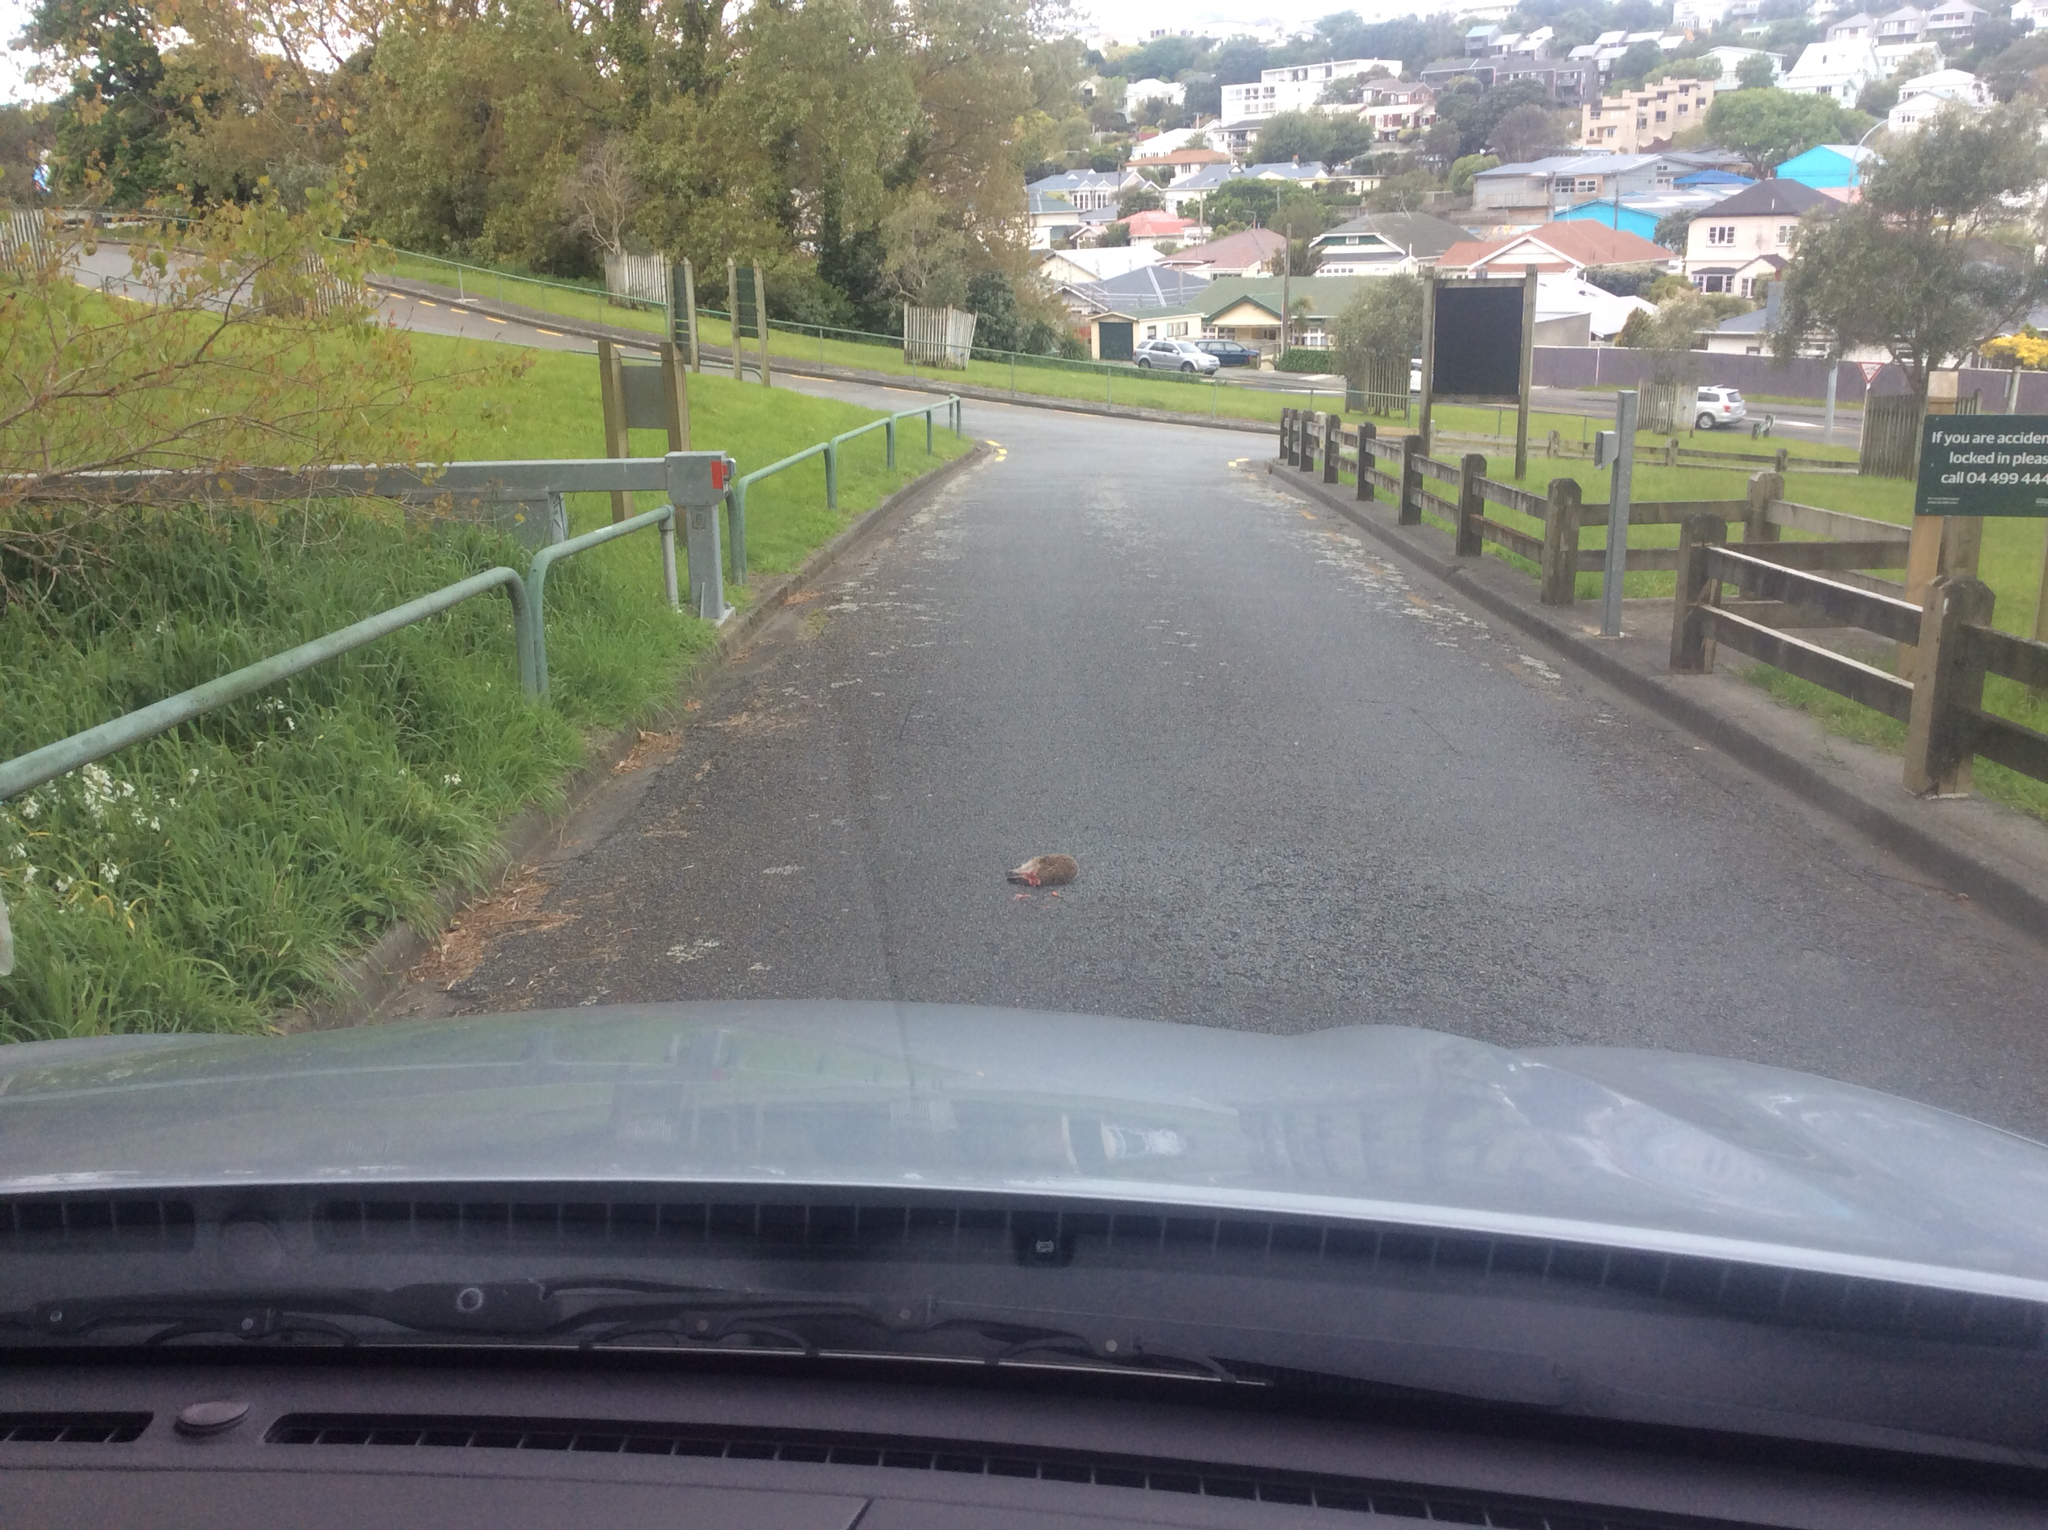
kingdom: Animalia
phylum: Chordata
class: Mammalia
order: Erinaceomorpha
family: Erinaceidae
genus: Erinaceus
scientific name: Erinaceus europaeus
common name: West european hedgehog
